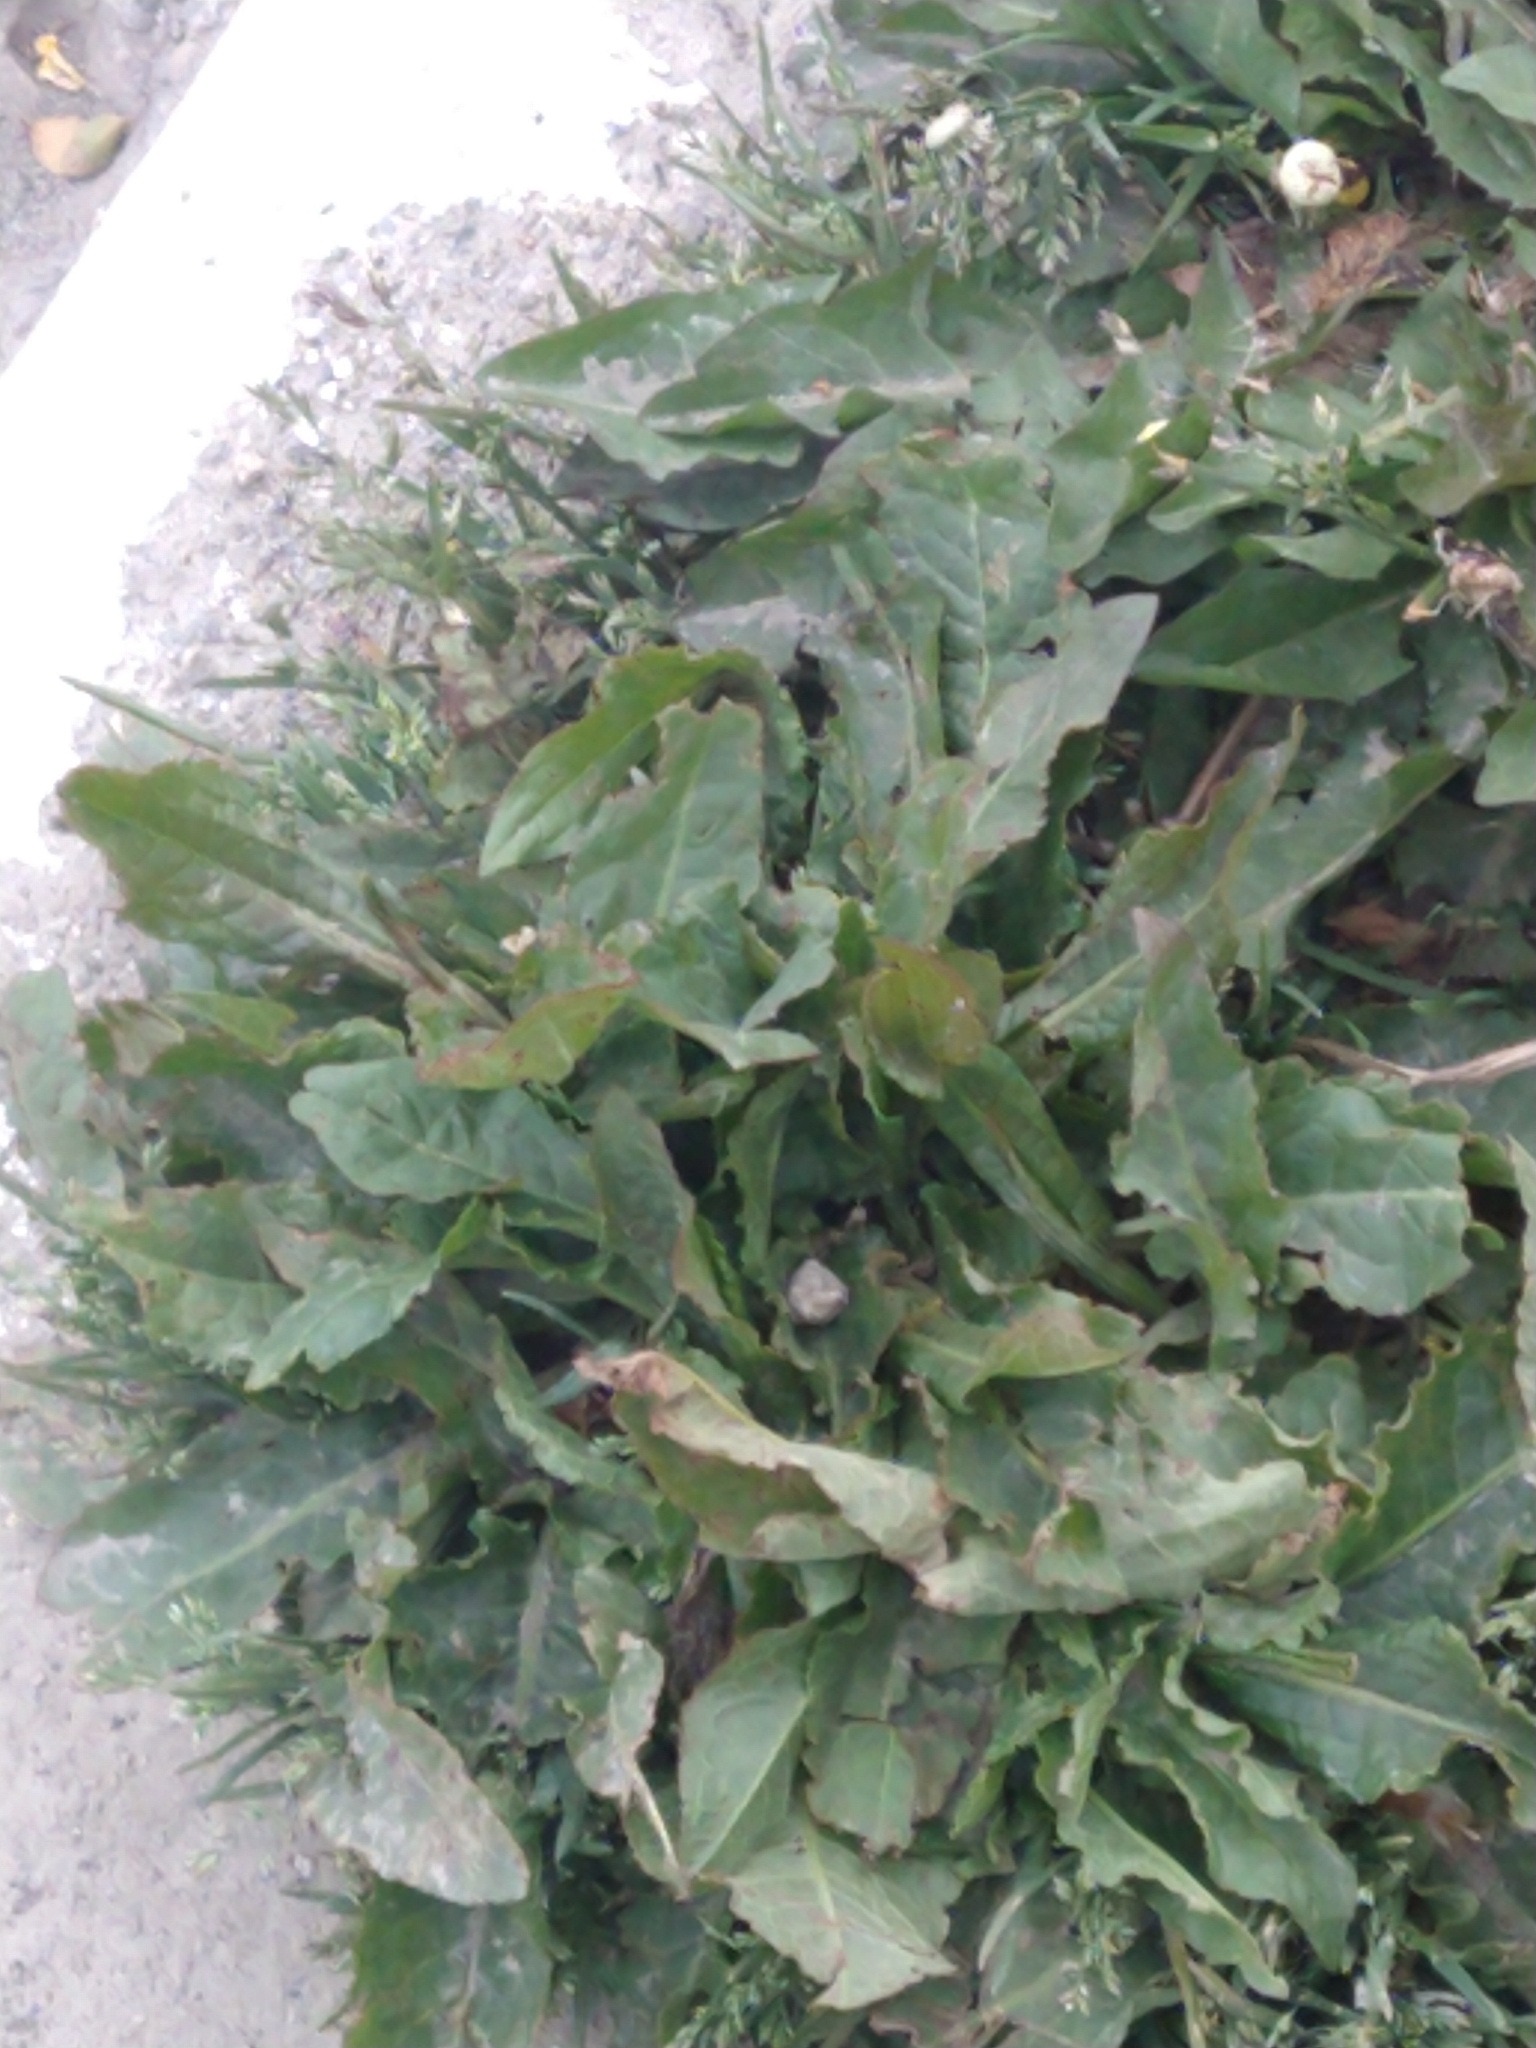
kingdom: Plantae
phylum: Tracheophyta
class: Magnoliopsida
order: Asterales
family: Asteraceae
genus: Taraxacum
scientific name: Taraxacum officinale
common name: Common dandelion
